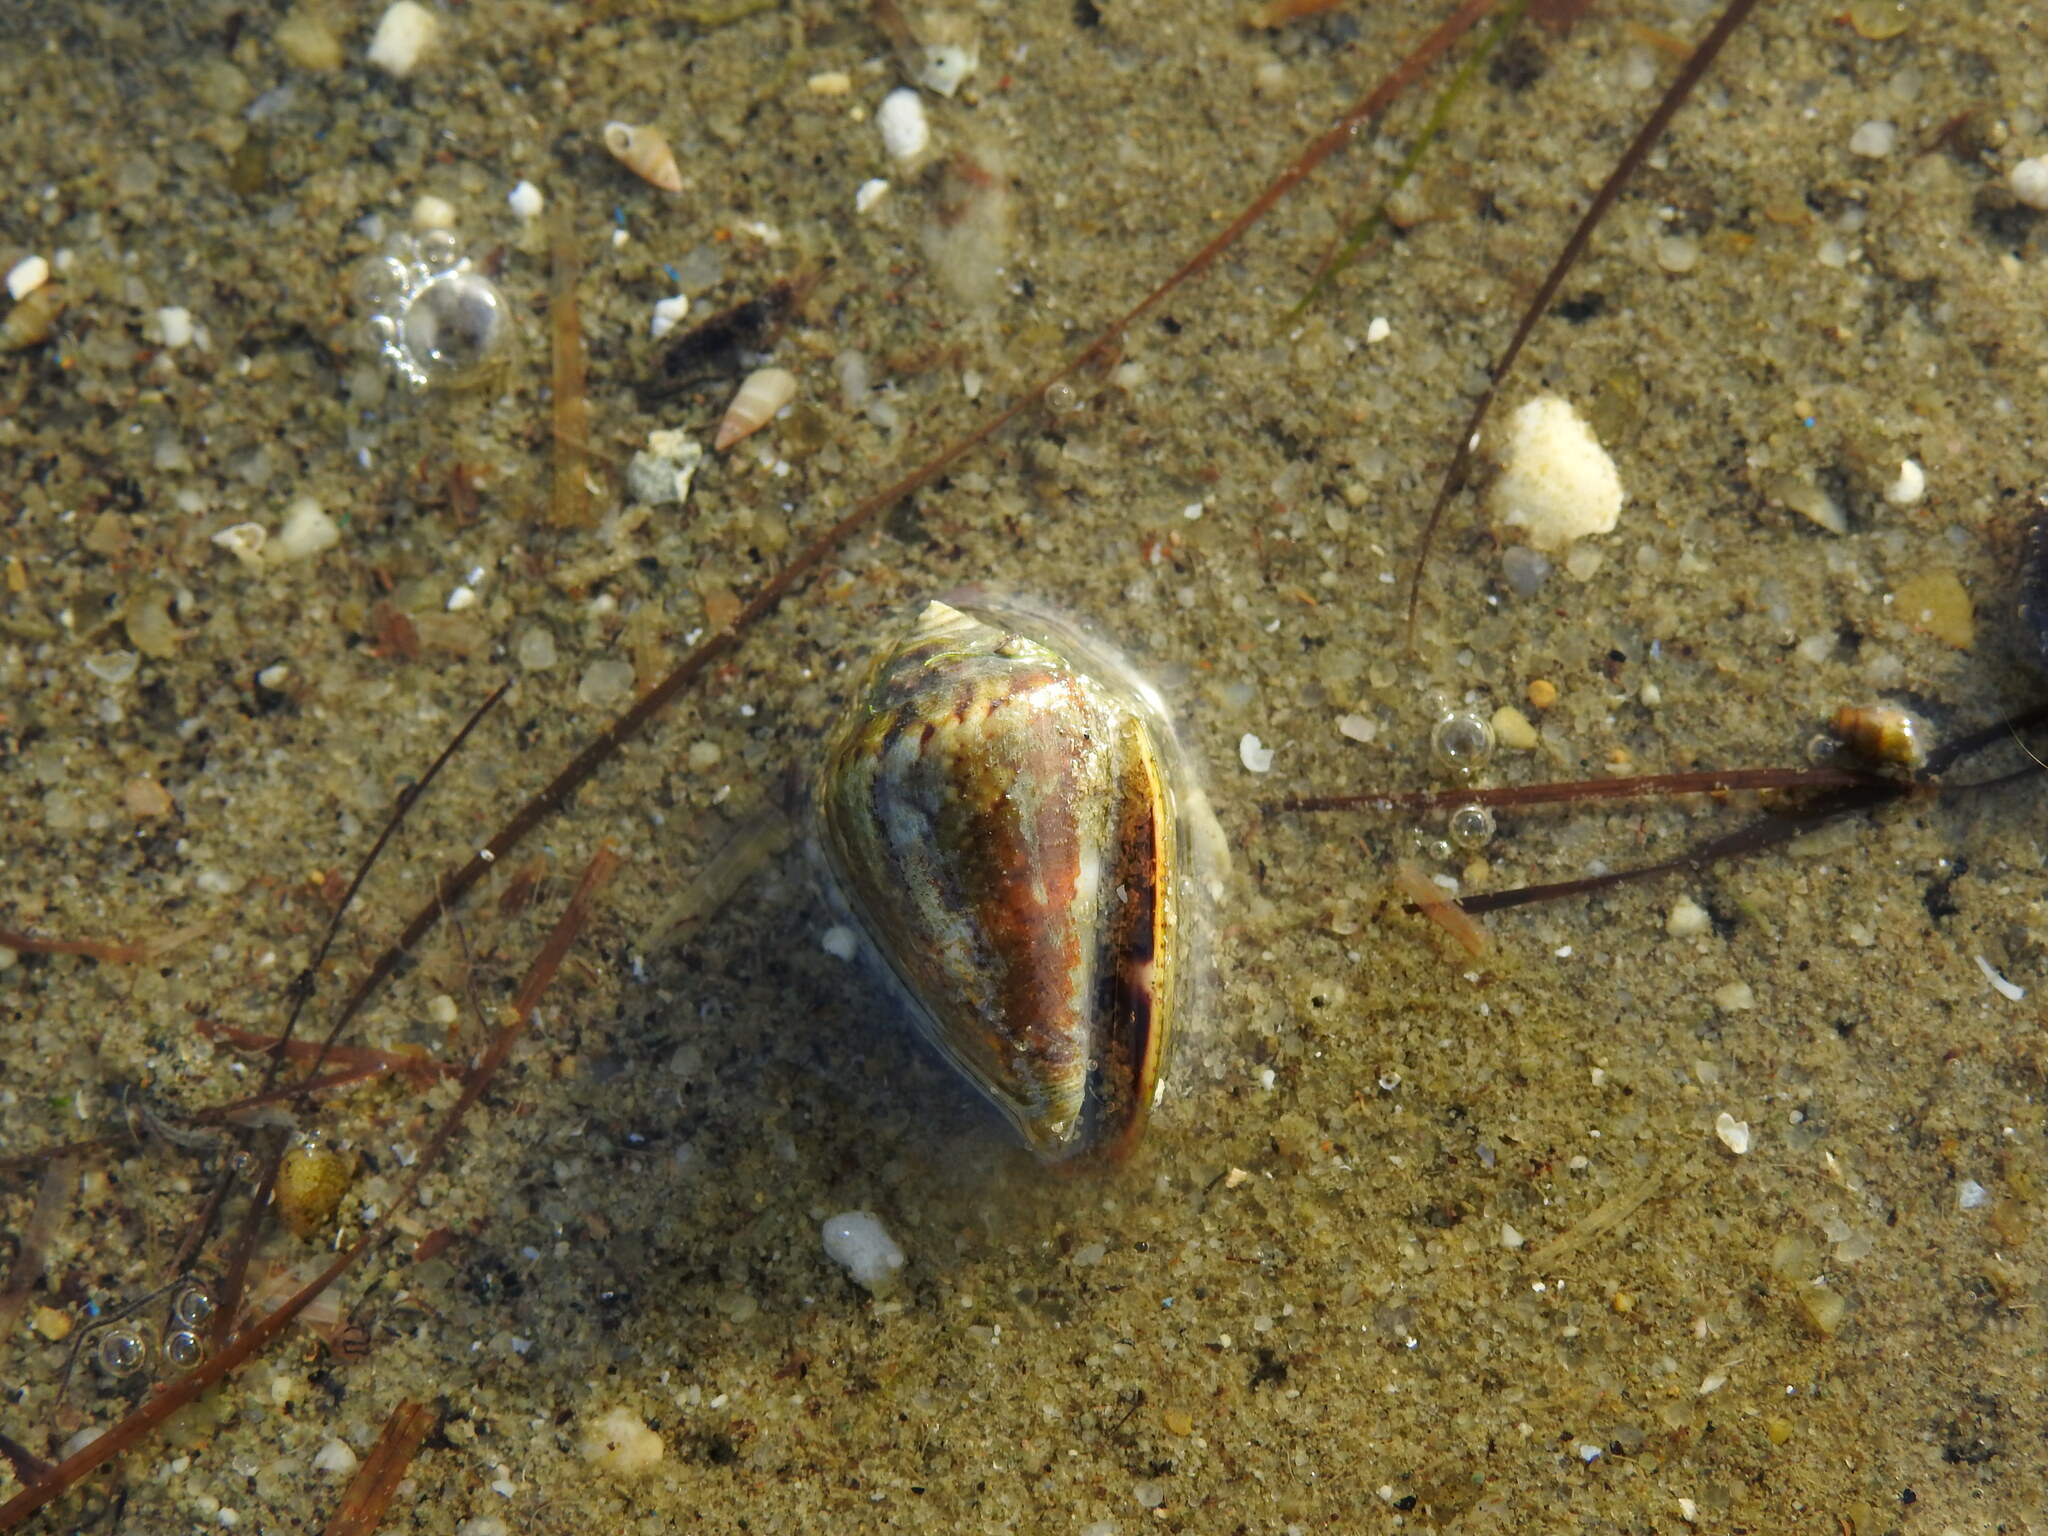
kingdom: Animalia
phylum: Mollusca
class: Gastropoda
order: Neogastropoda
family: Conidae
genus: Conus
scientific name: Conus ventricosus
